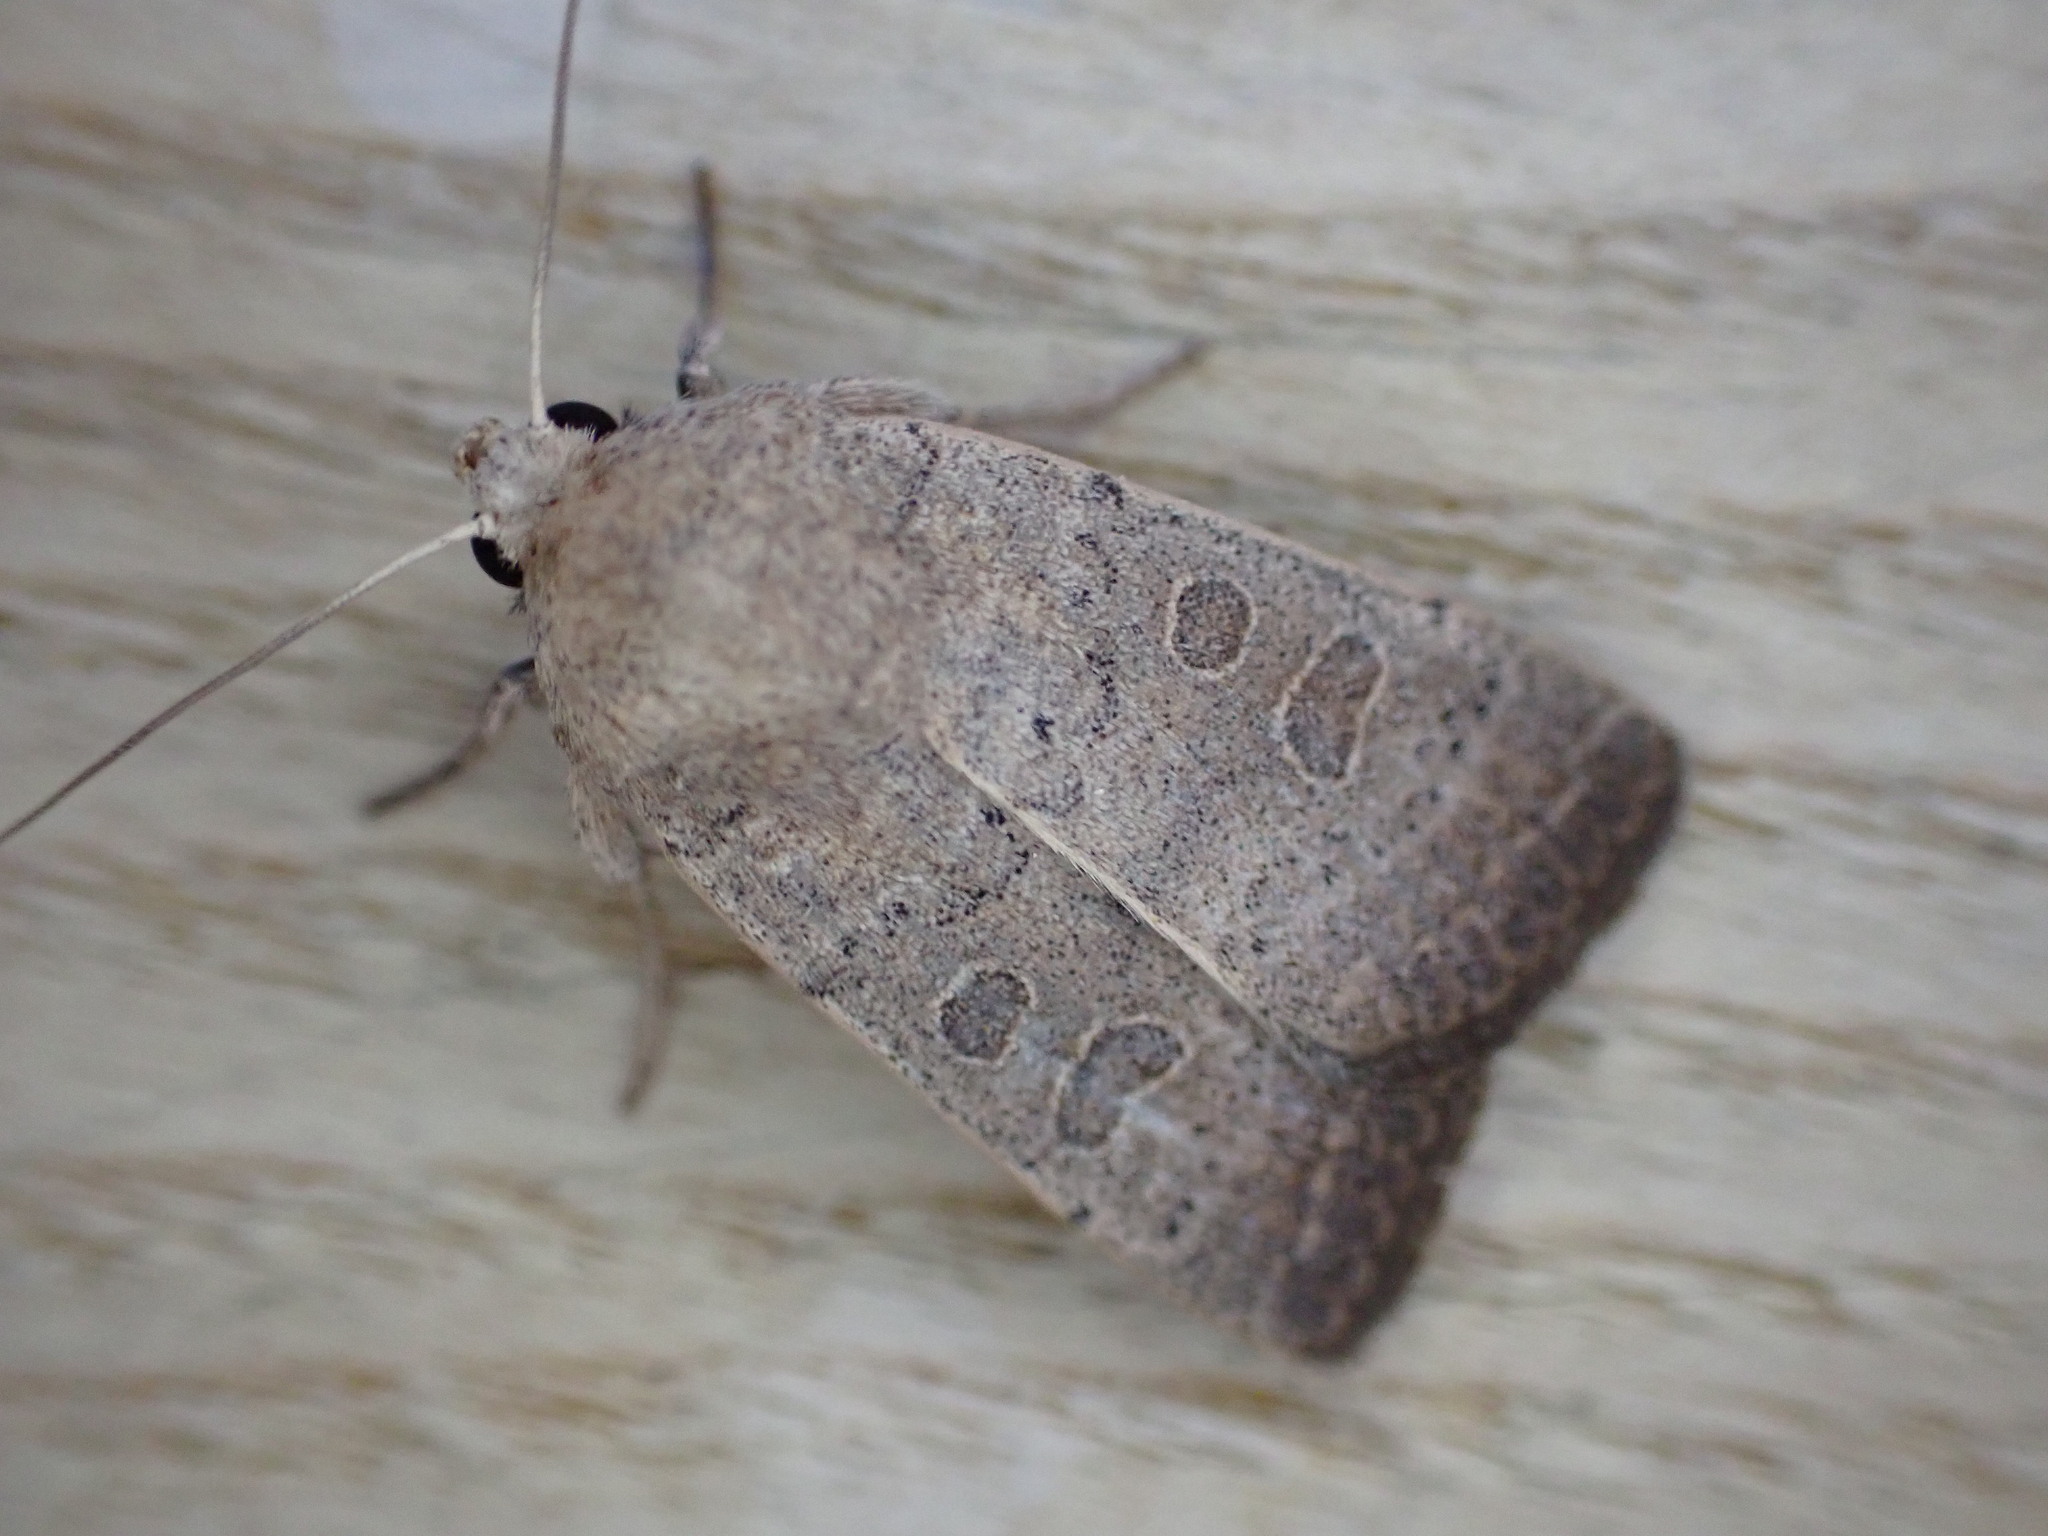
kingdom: Animalia
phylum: Arthropoda
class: Insecta
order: Lepidoptera
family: Noctuidae
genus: Hoplodrina
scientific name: Hoplodrina ambigua
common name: Vine's rustic
